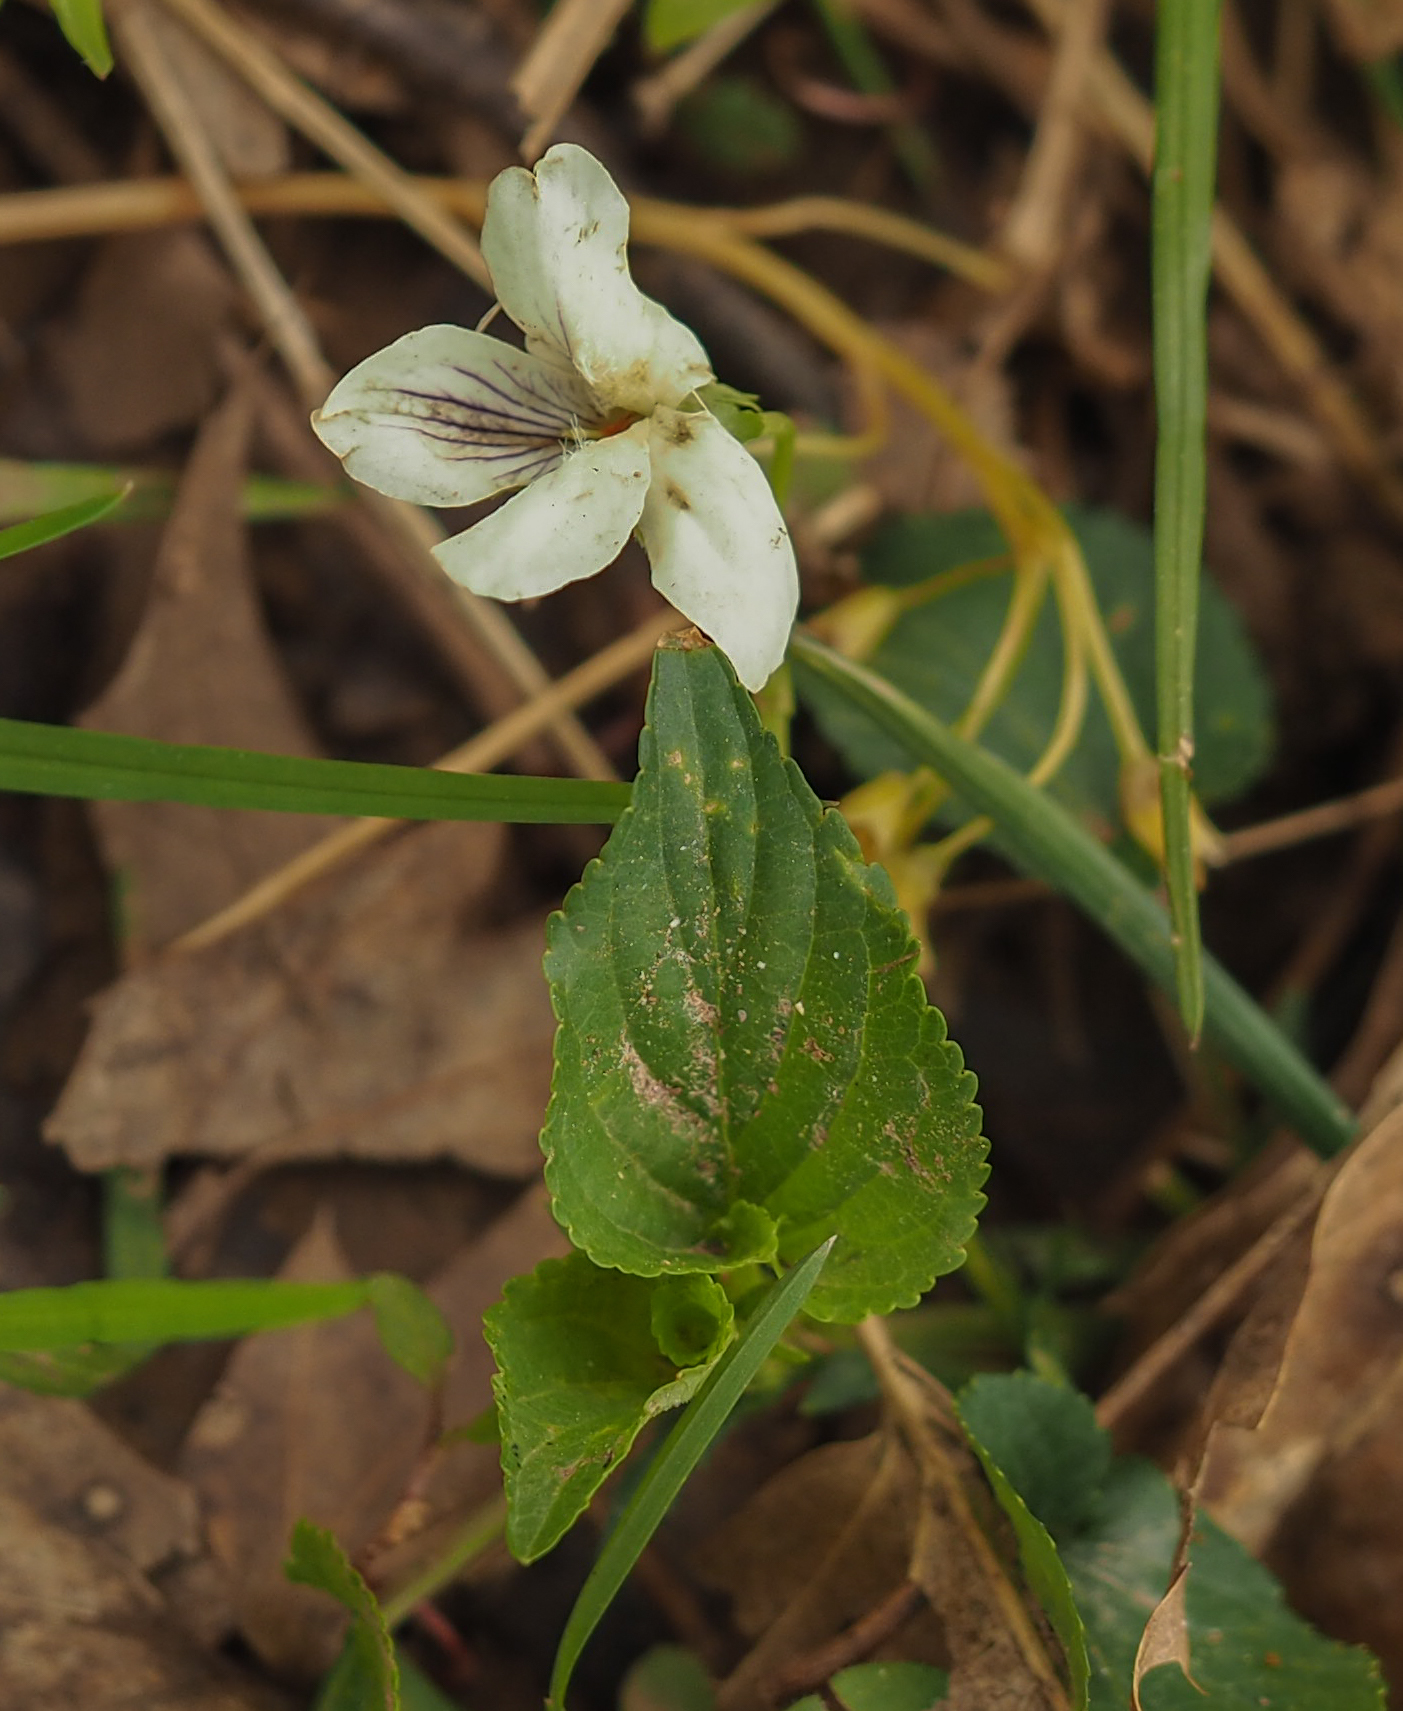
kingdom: Plantae
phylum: Tracheophyta
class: Magnoliopsida
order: Malpighiales
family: Violaceae
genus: Viola
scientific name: Viola striata
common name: Cream violet
